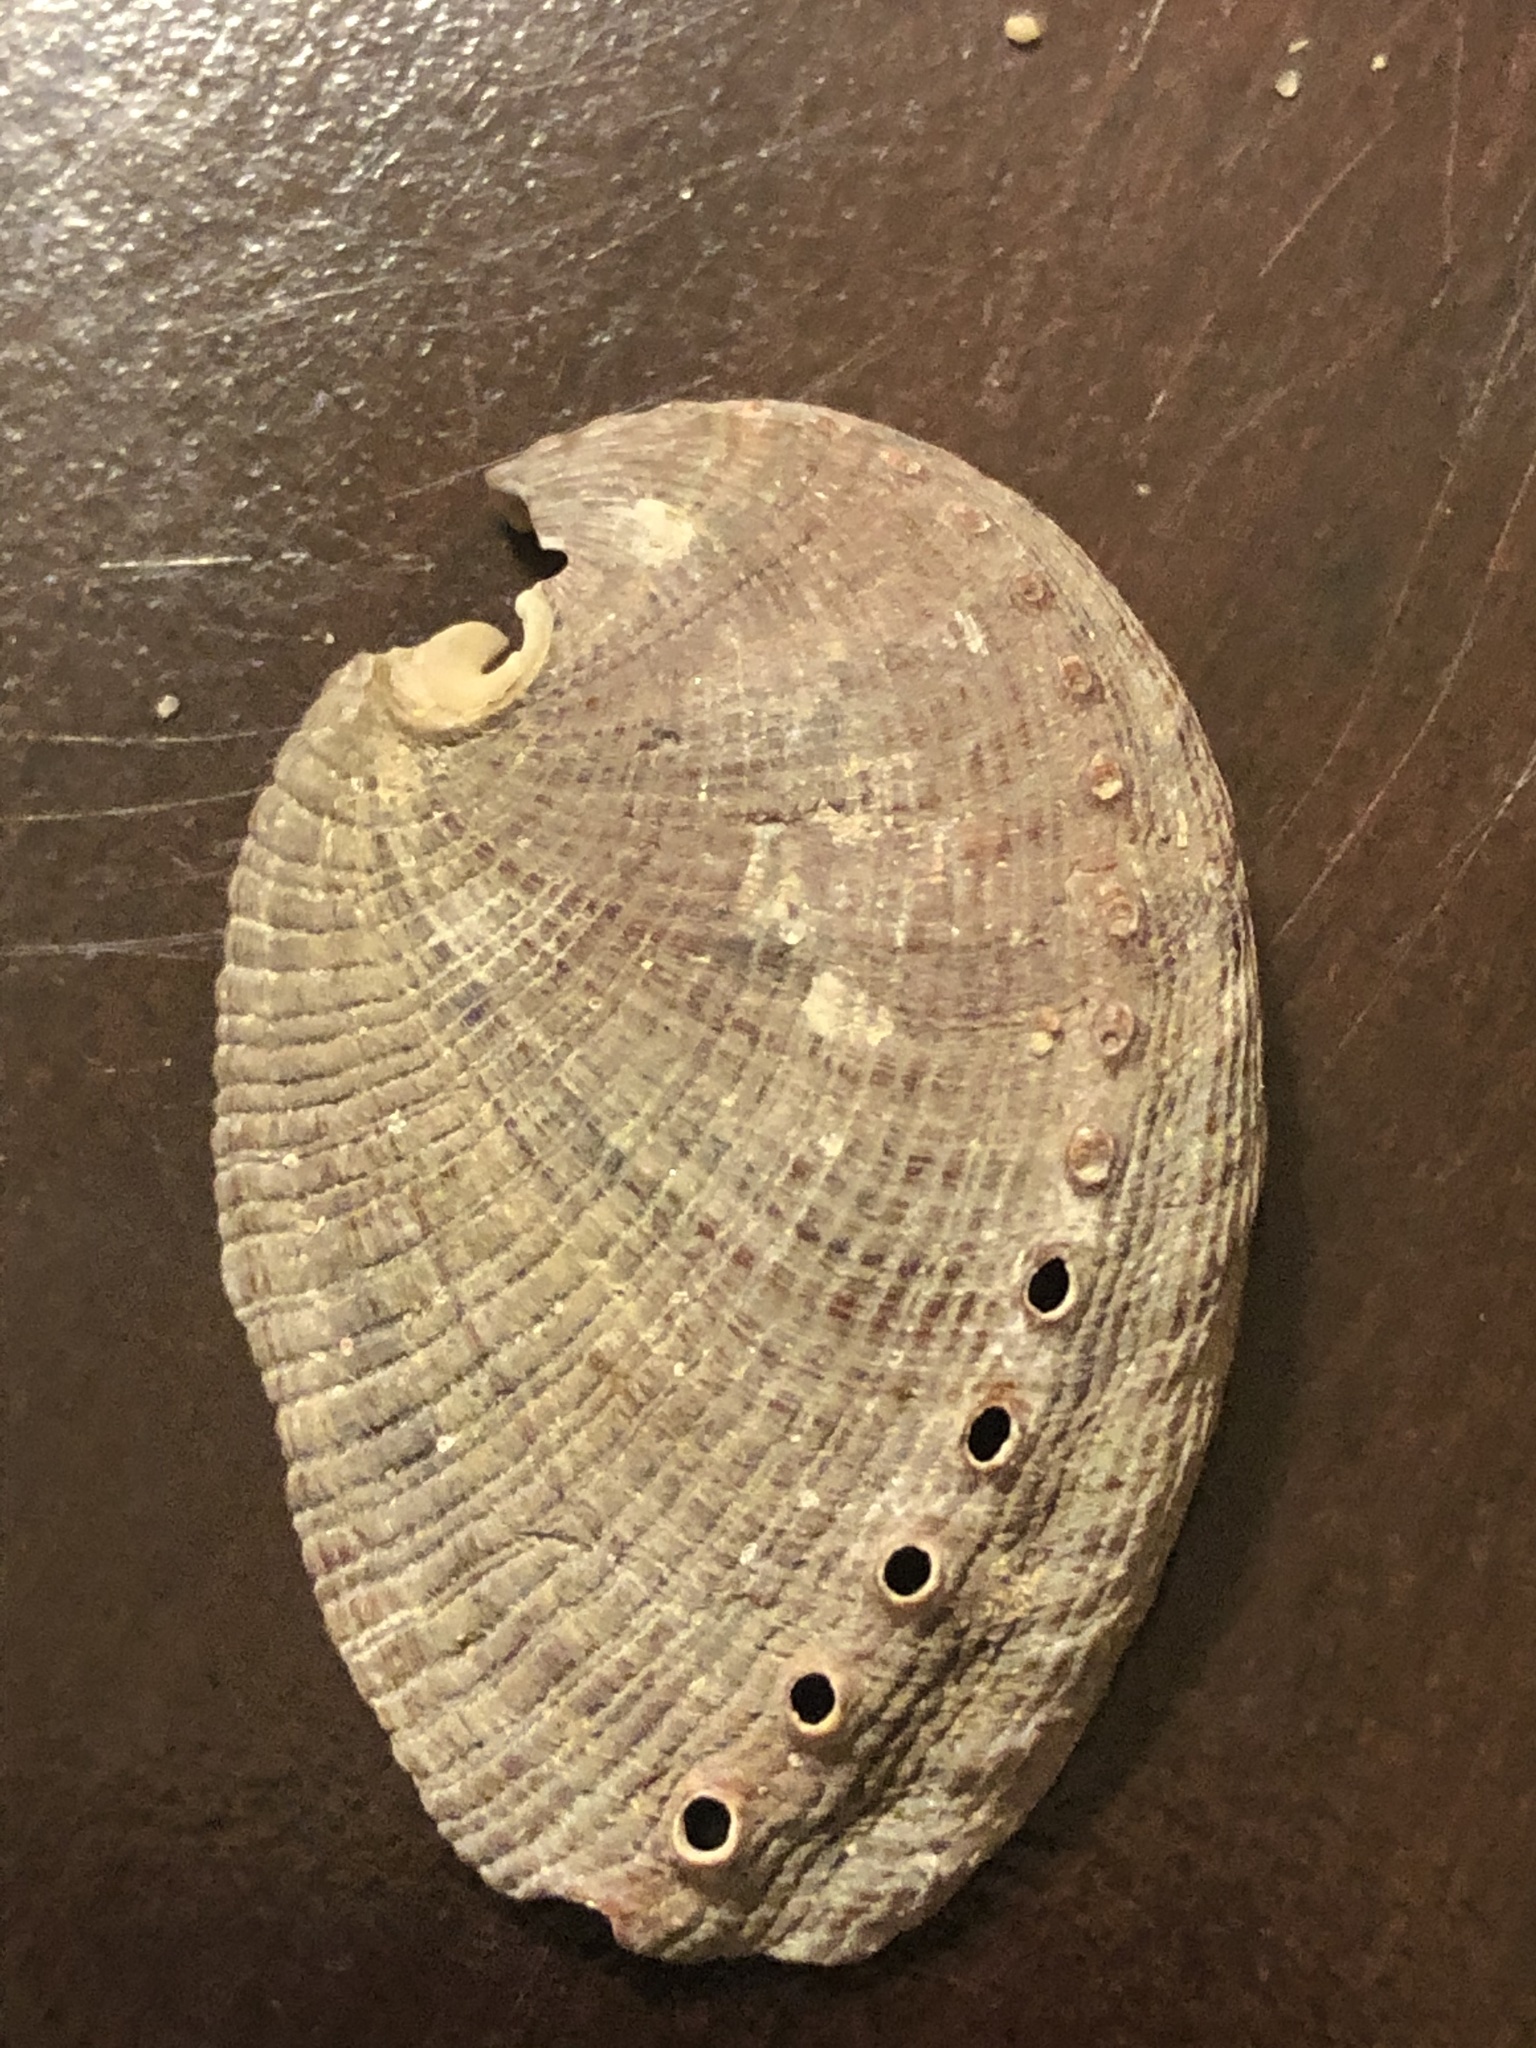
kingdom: Animalia
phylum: Mollusca
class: Gastropoda
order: Lepetellida
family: Haliotidae
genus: Haliotis
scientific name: Haliotis fulgens
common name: Green abalone
